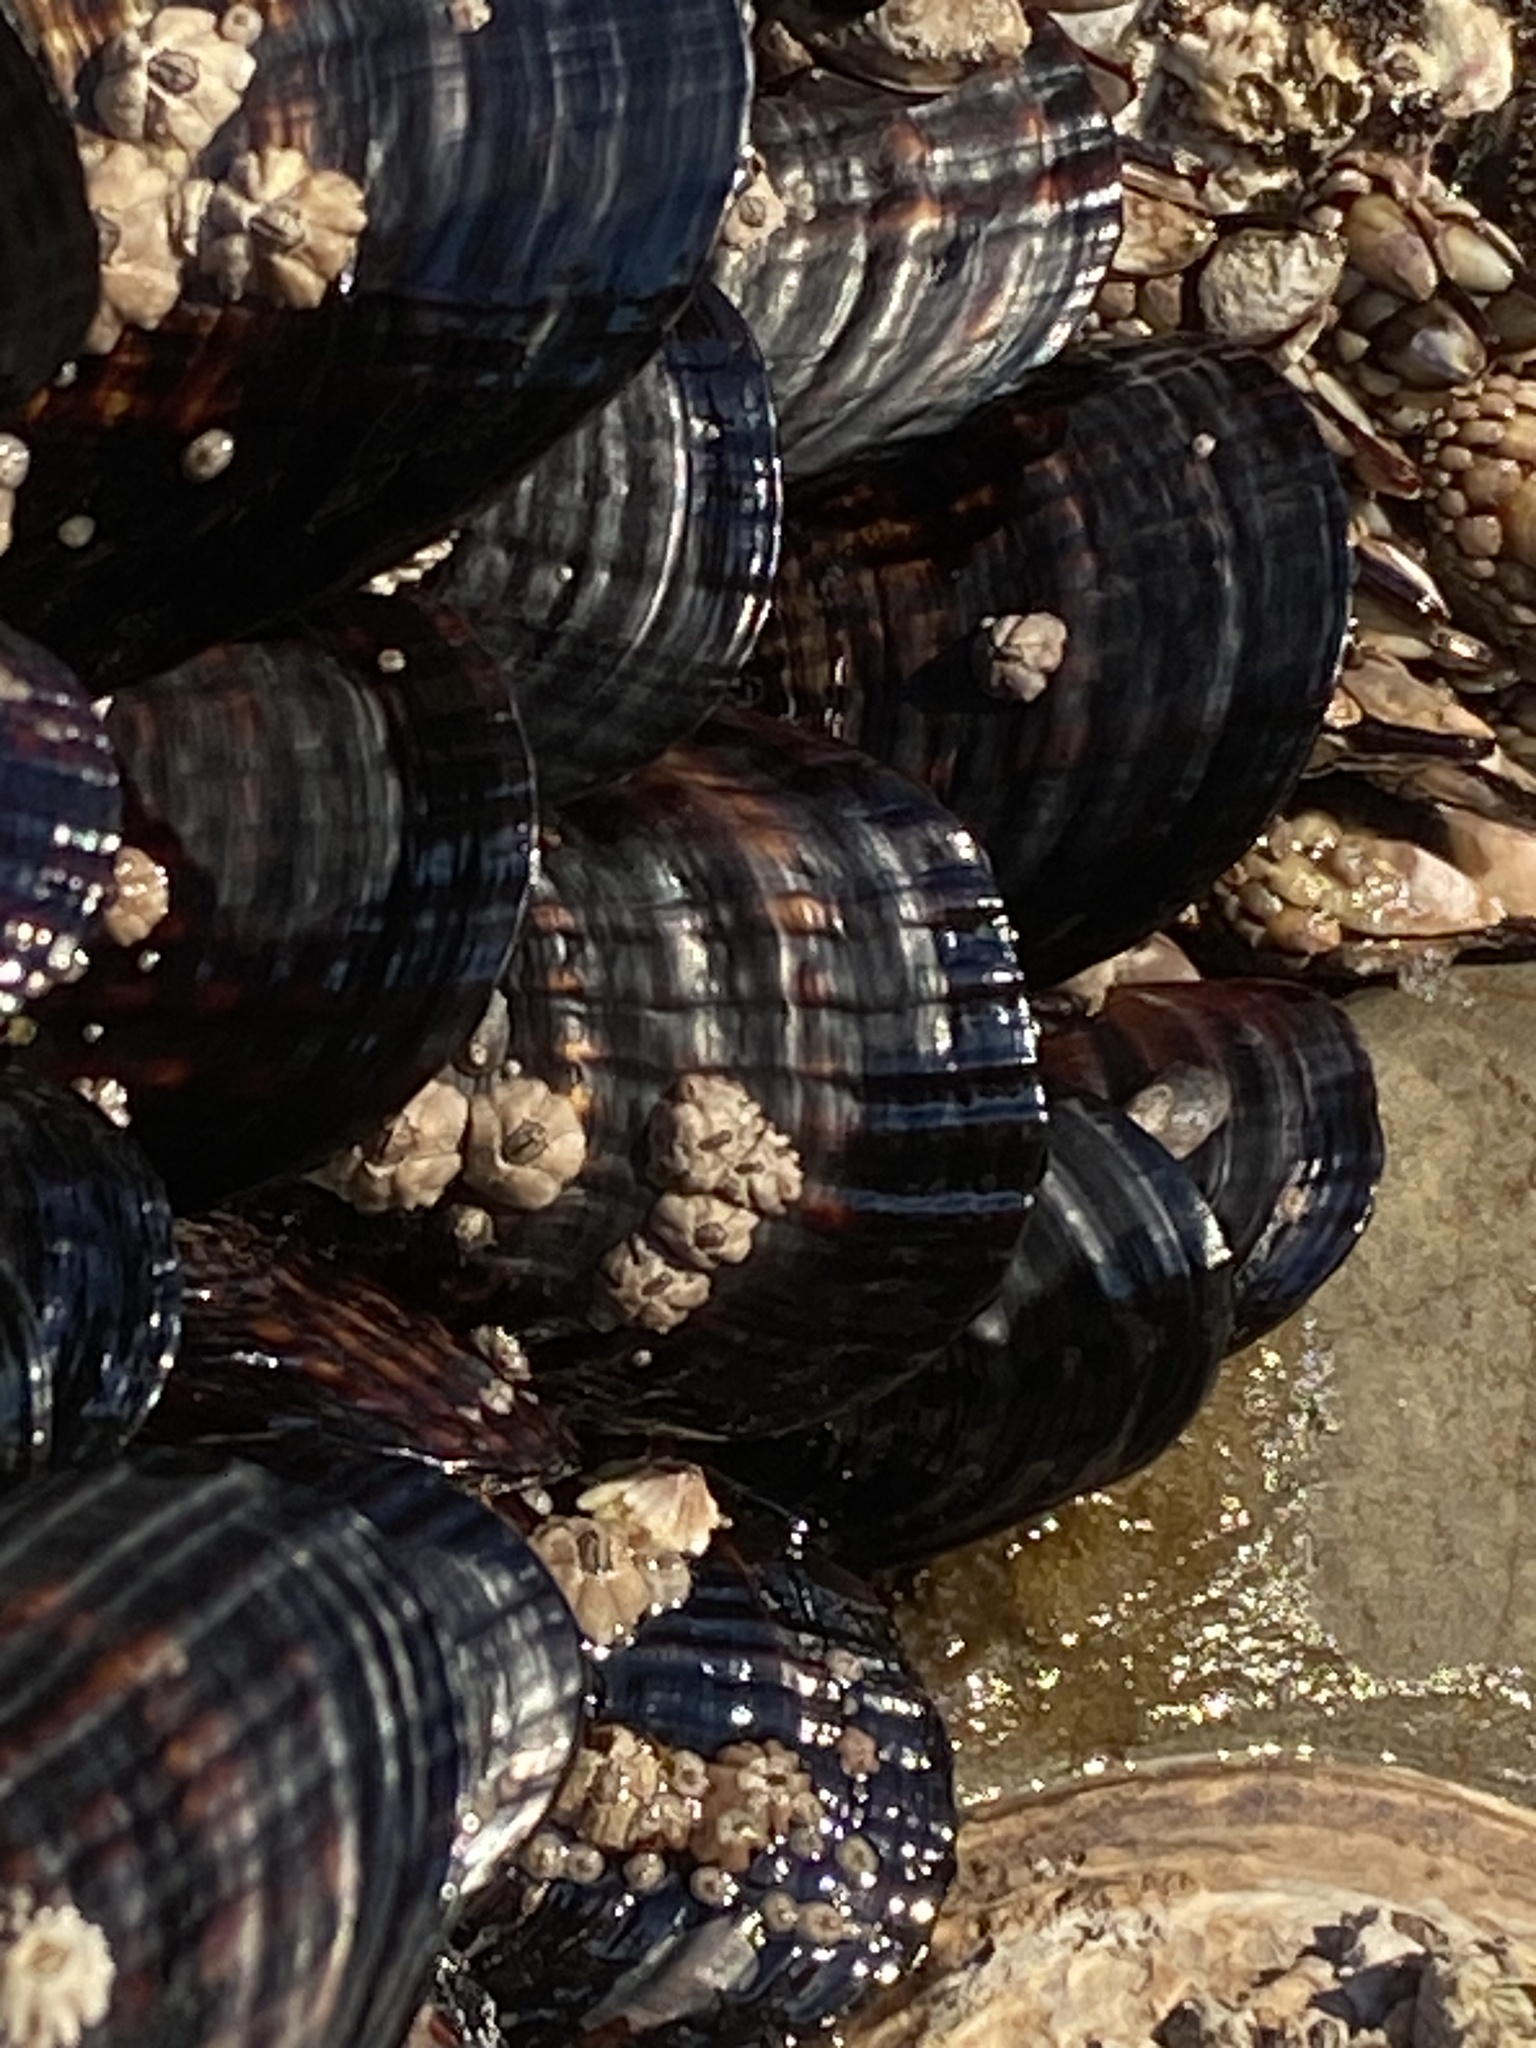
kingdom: Animalia
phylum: Mollusca
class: Bivalvia
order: Mytilida
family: Mytilidae
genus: Mytilus
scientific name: Mytilus californianus
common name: California mussel
